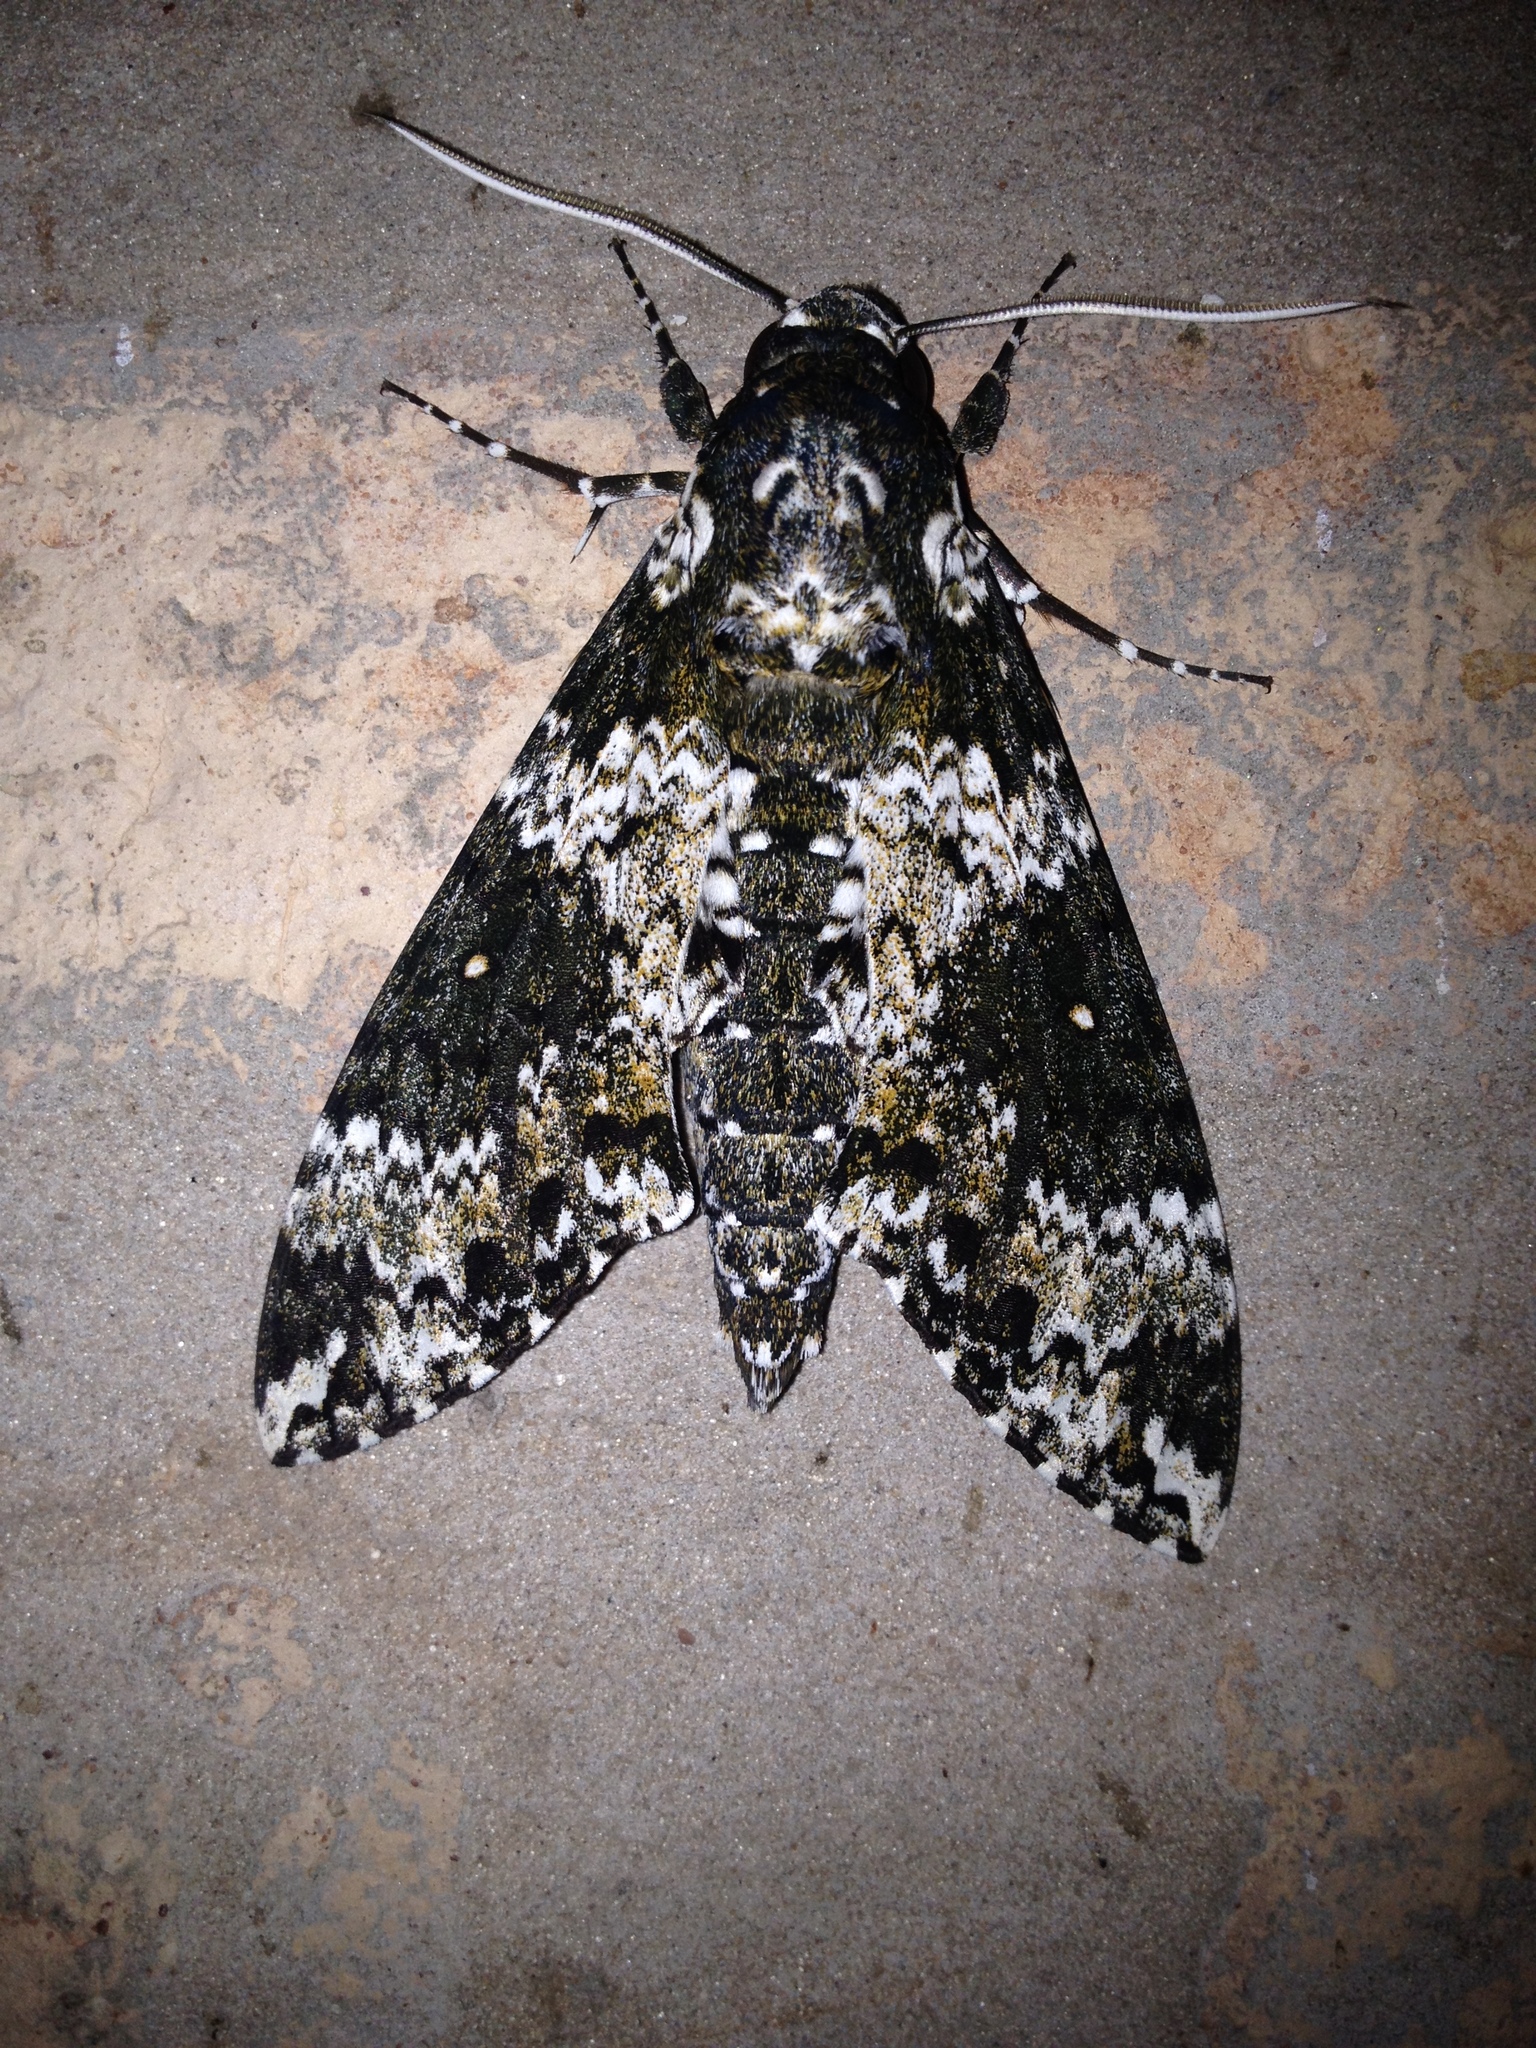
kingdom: Animalia
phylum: Arthropoda
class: Insecta
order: Lepidoptera
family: Sphingidae
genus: Manduca
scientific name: Manduca rustica
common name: Rustic sphinx
